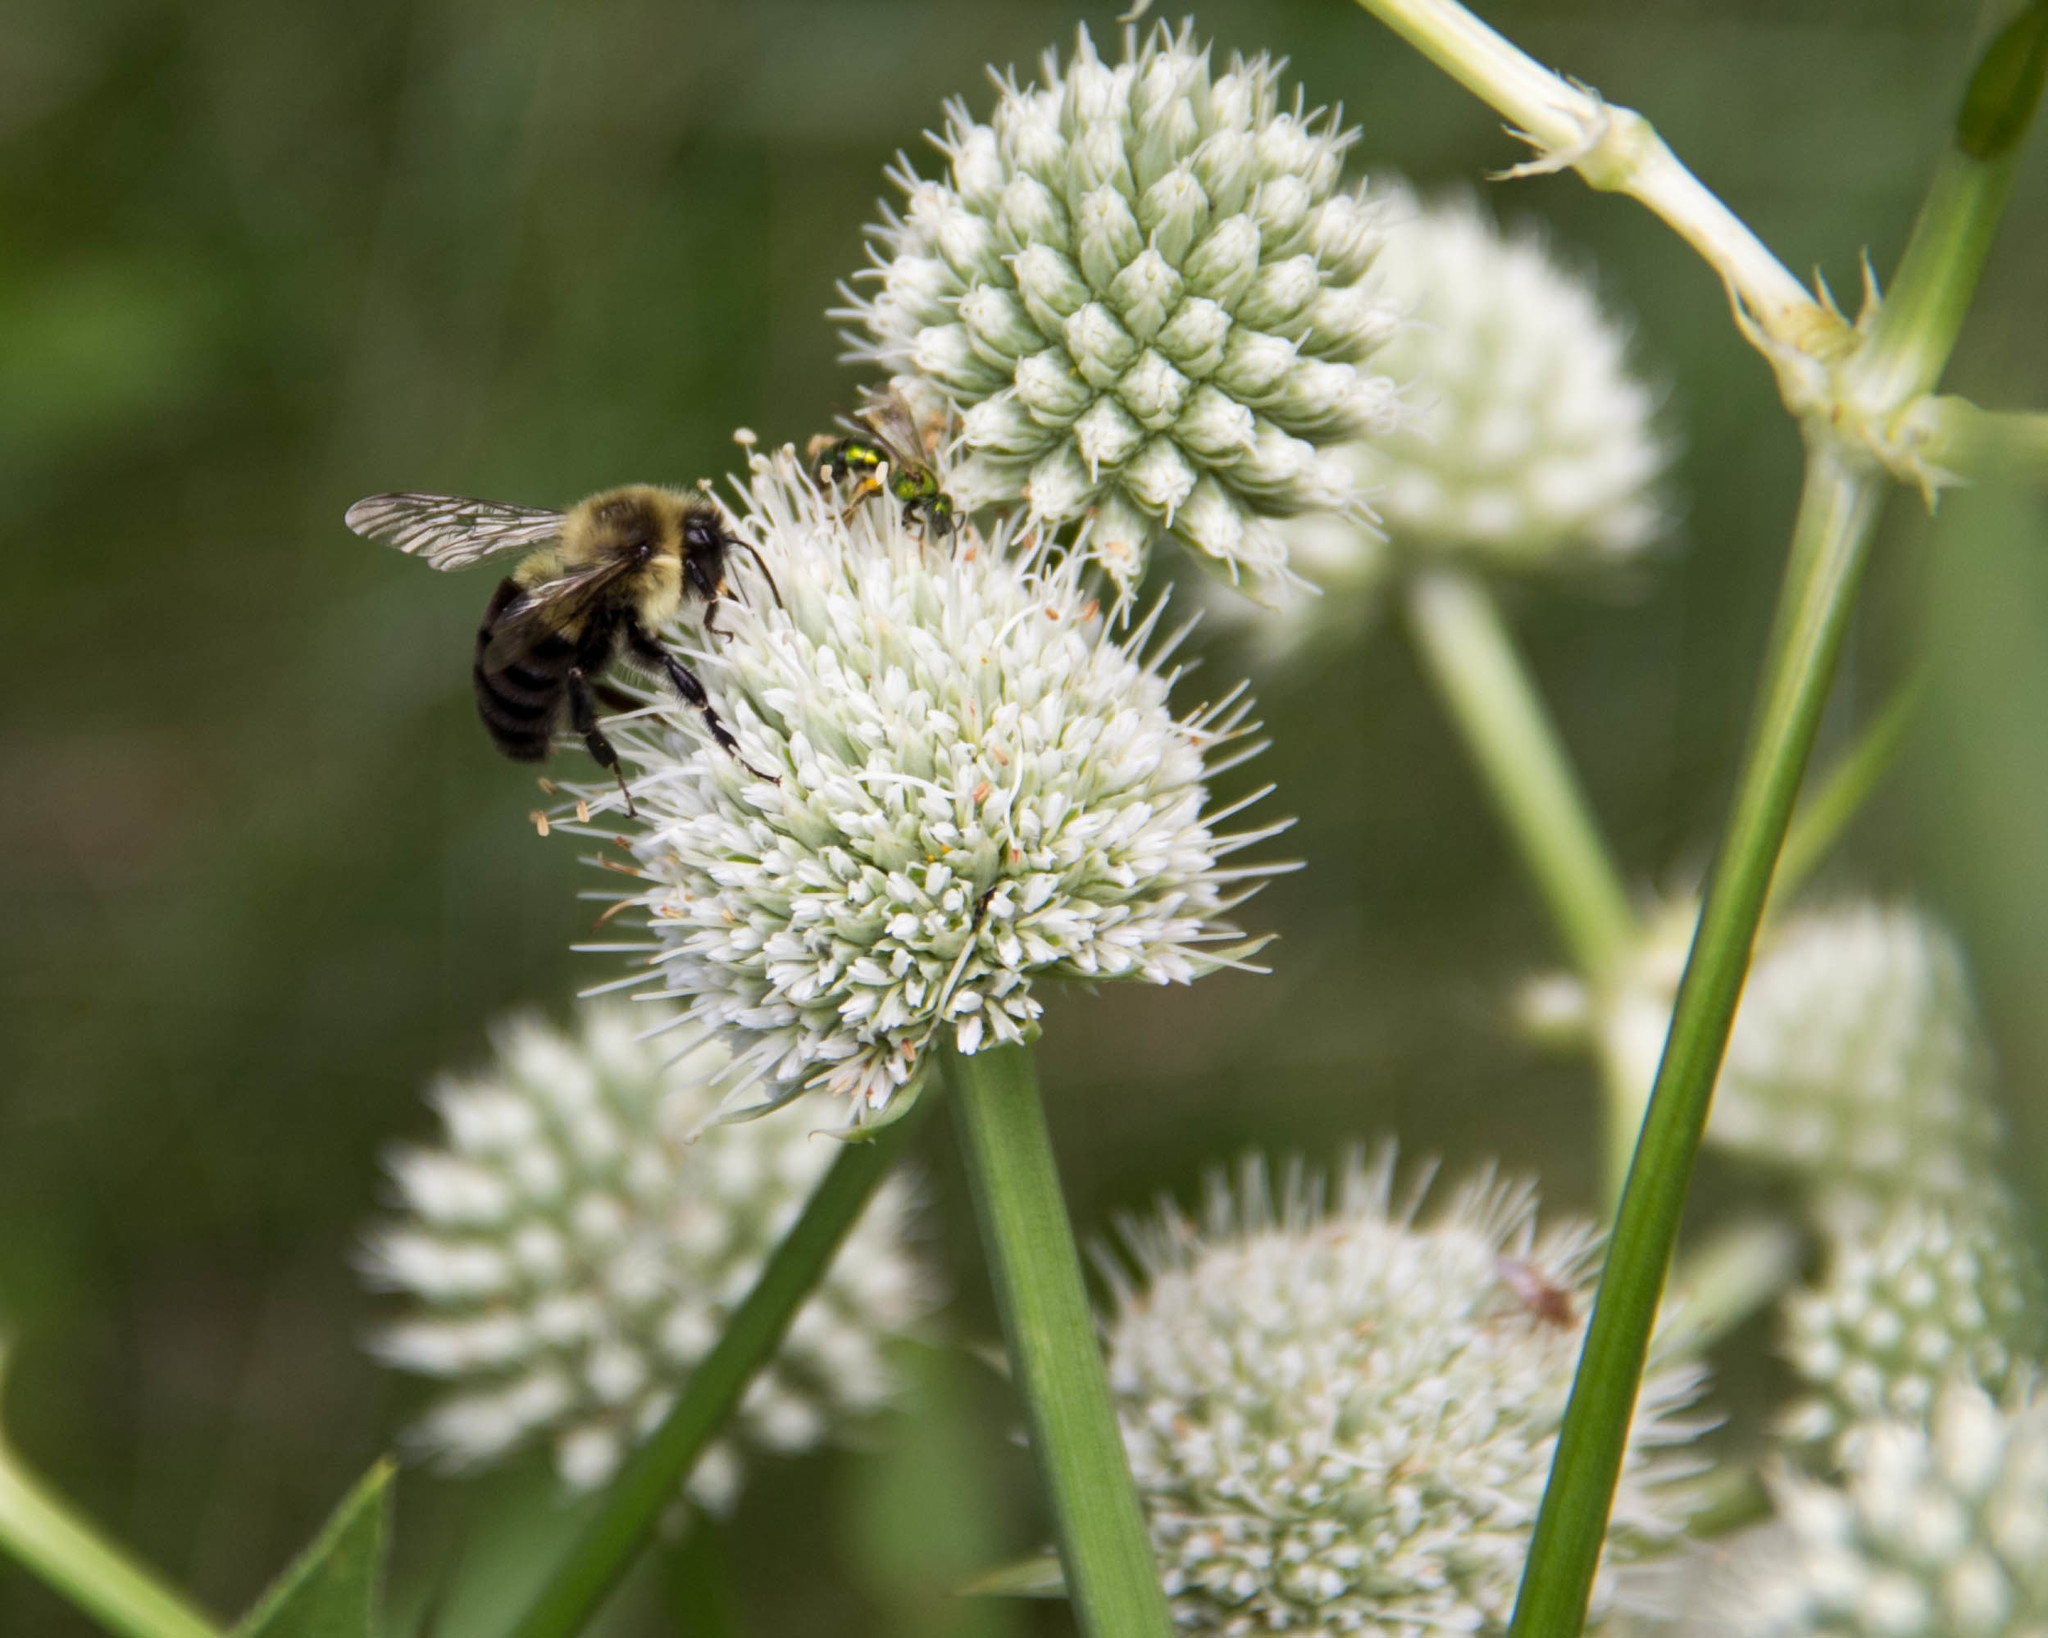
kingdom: Animalia
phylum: Arthropoda
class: Insecta
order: Hymenoptera
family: Apidae
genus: Bombus
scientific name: Bombus impatiens
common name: Common eastern bumble bee
